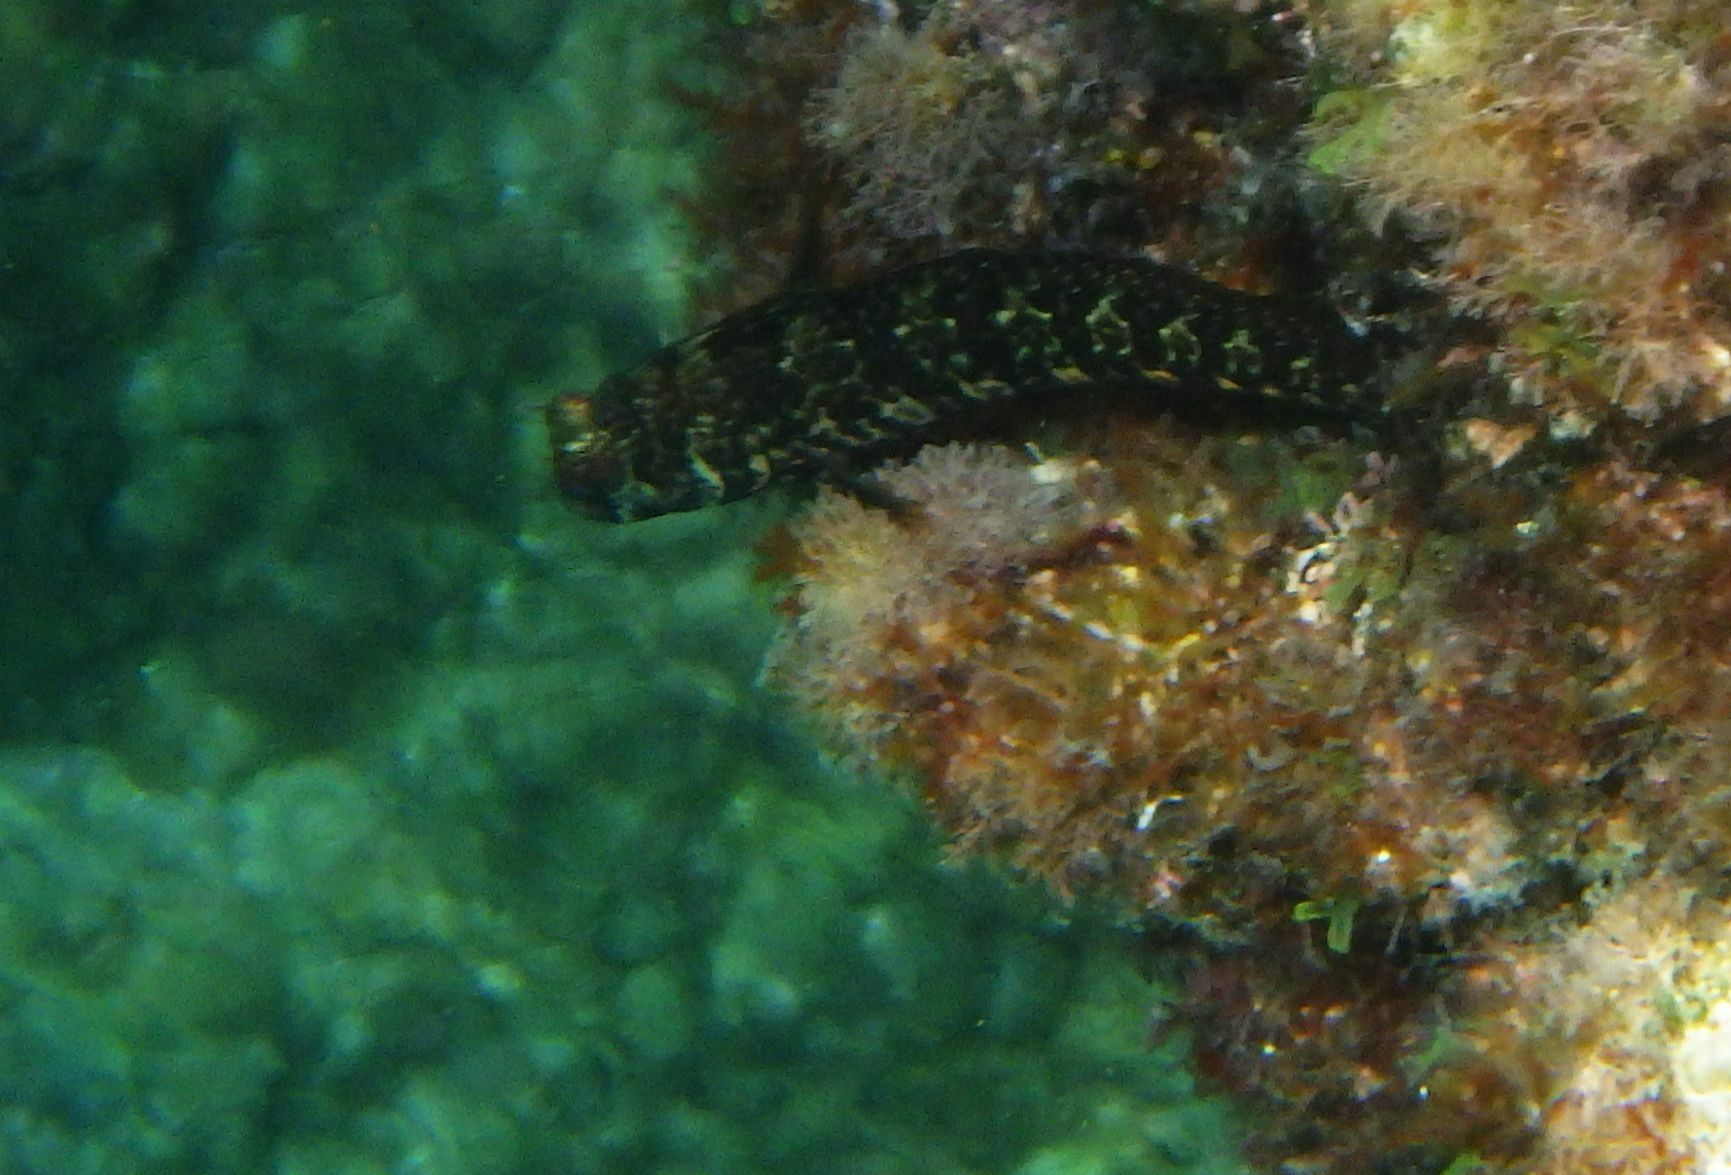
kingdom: Animalia
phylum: Chordata
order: Perciformes
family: Blenniidae
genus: Parablennius
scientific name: Parablennius pilicornis
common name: Ringneck blenny
